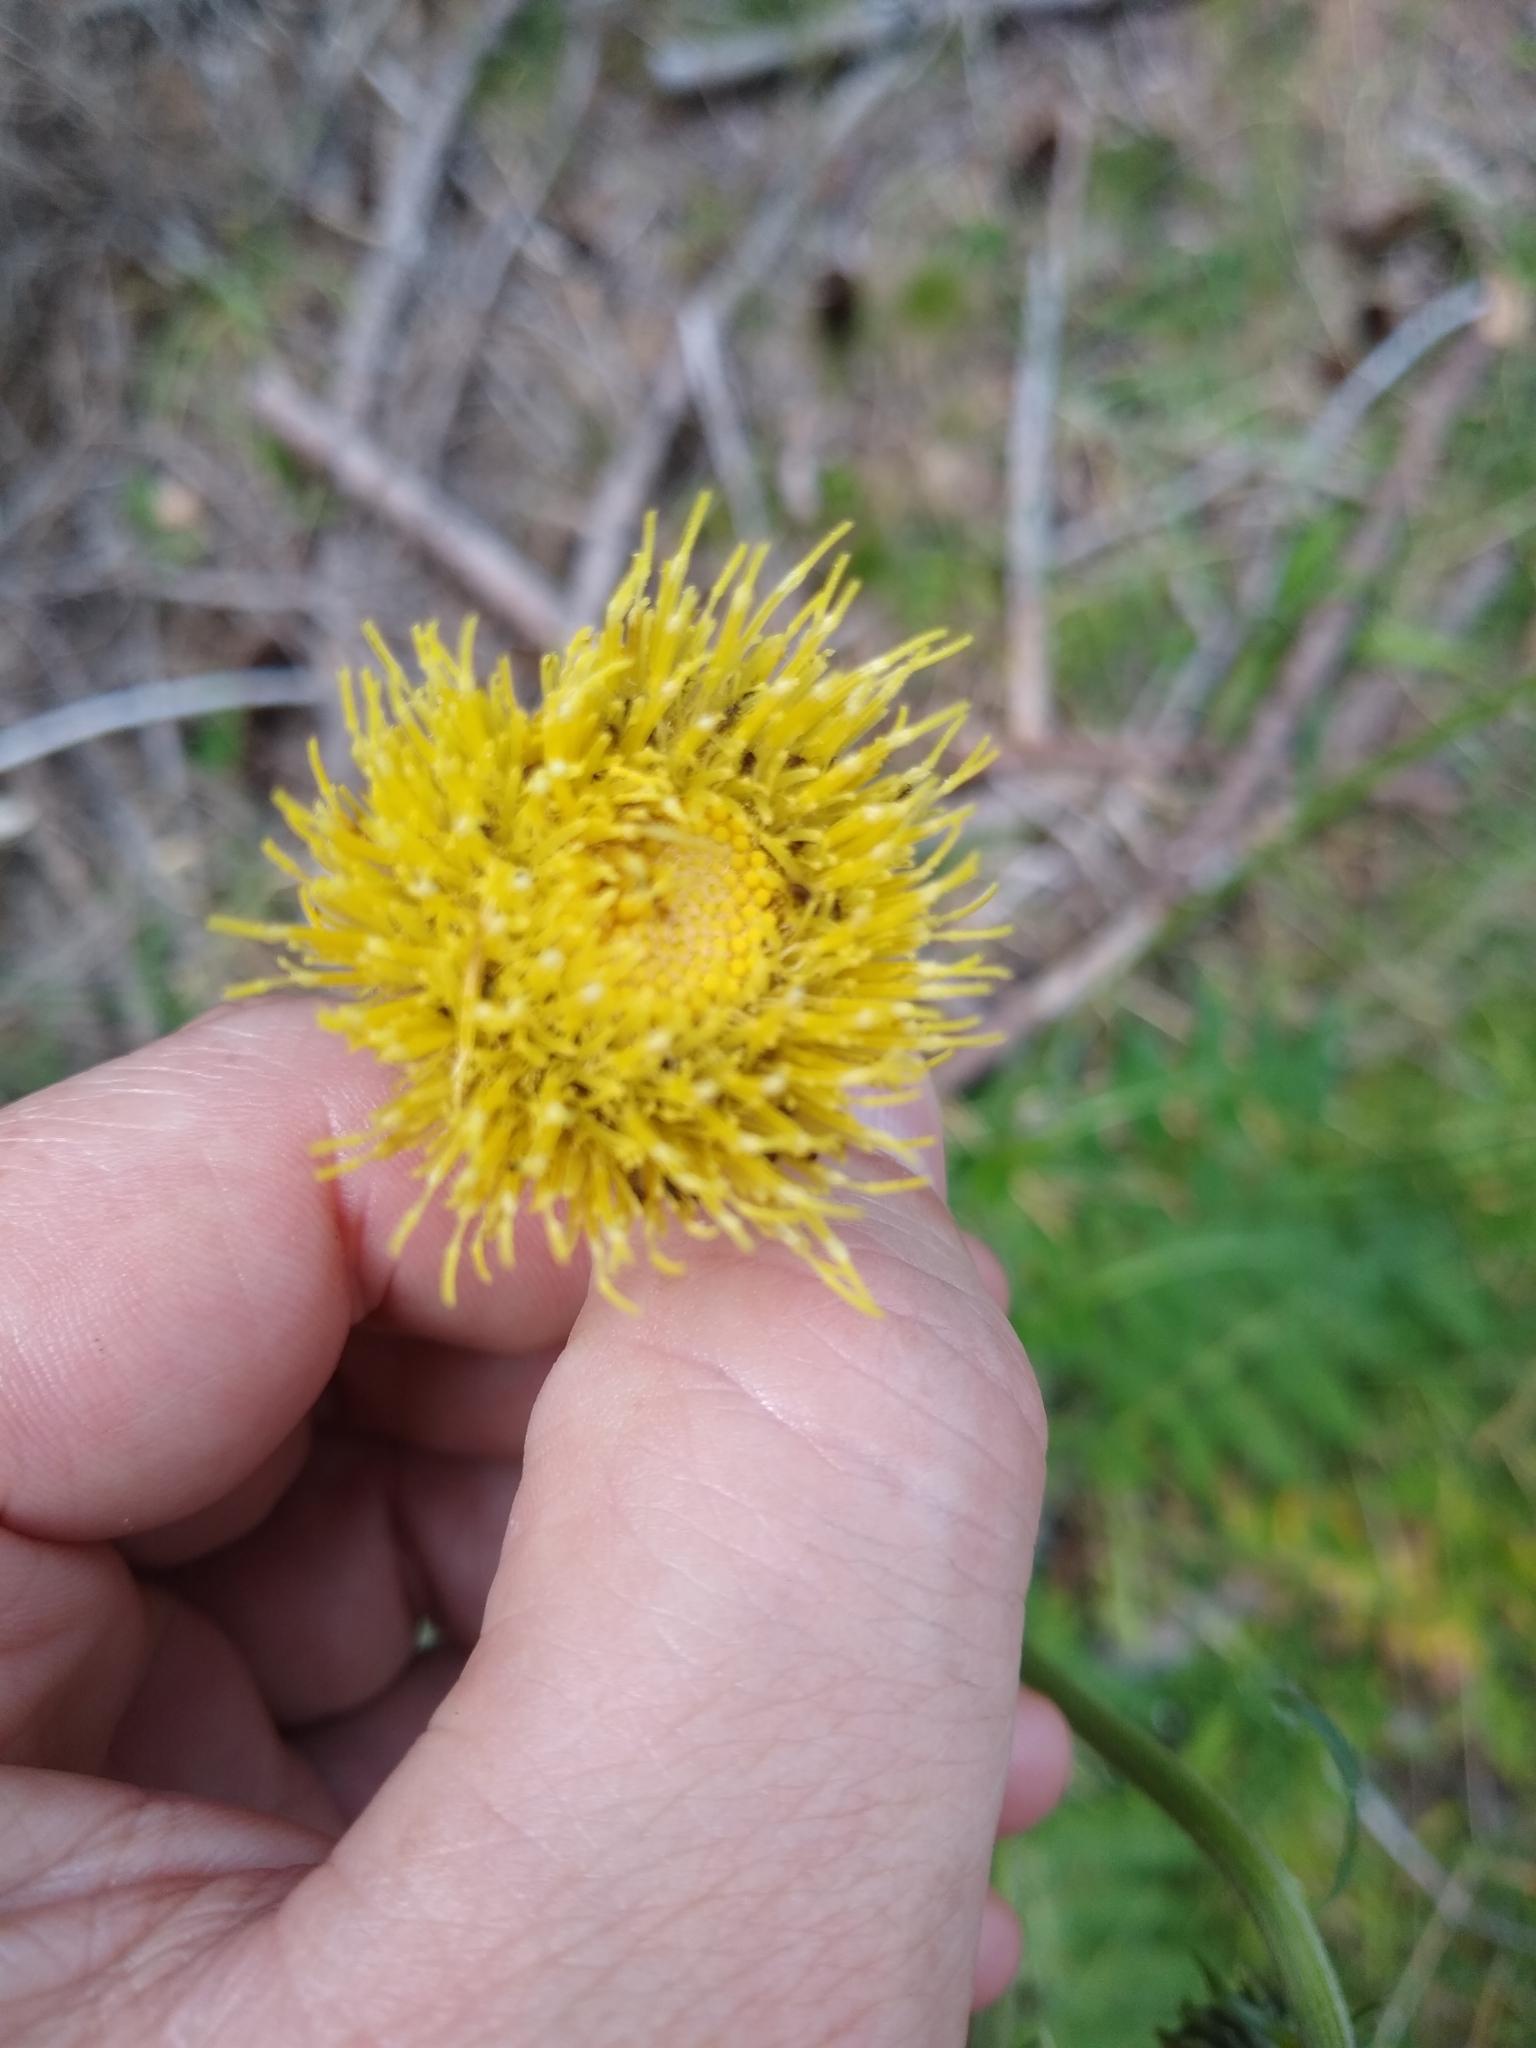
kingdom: Plantae
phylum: Tracheophyta
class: Magnoliopsida
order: Asterales
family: Asteraceae
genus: Cirsium
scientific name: Cirsium erisithales
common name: Yellow thistle
